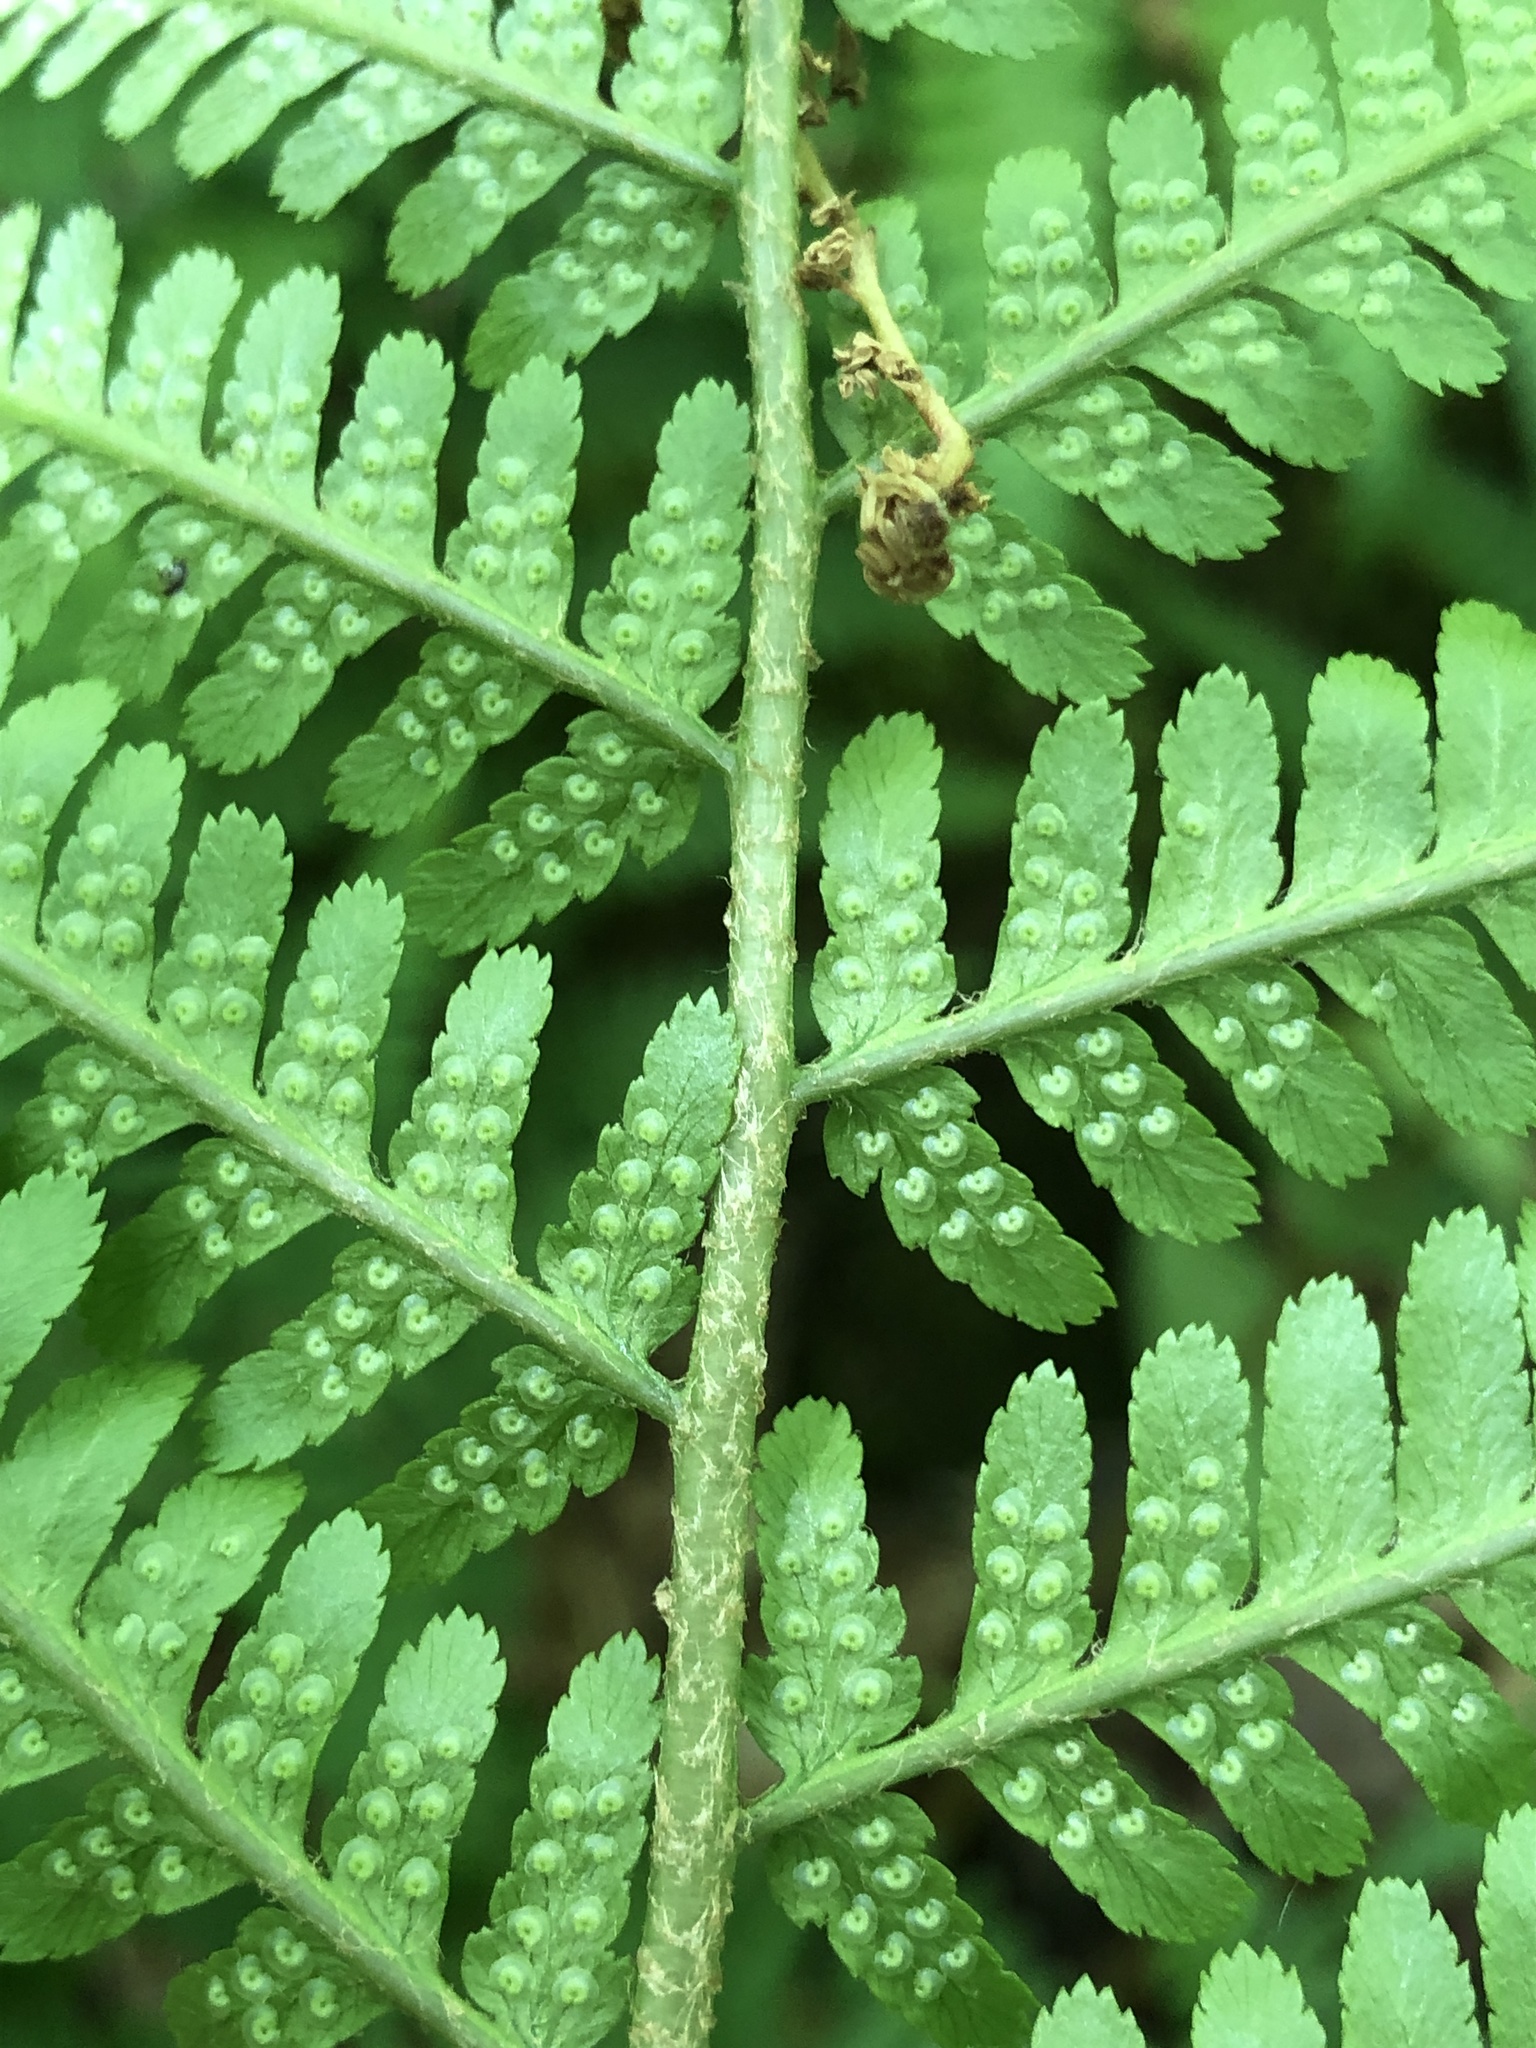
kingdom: Plantae
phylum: Tracheophyta
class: Polypodiopsida
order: Polypodiales
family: Dryopteridaceae
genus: Dryopteris
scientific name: Dryopteris filix-mas
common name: Male fern
